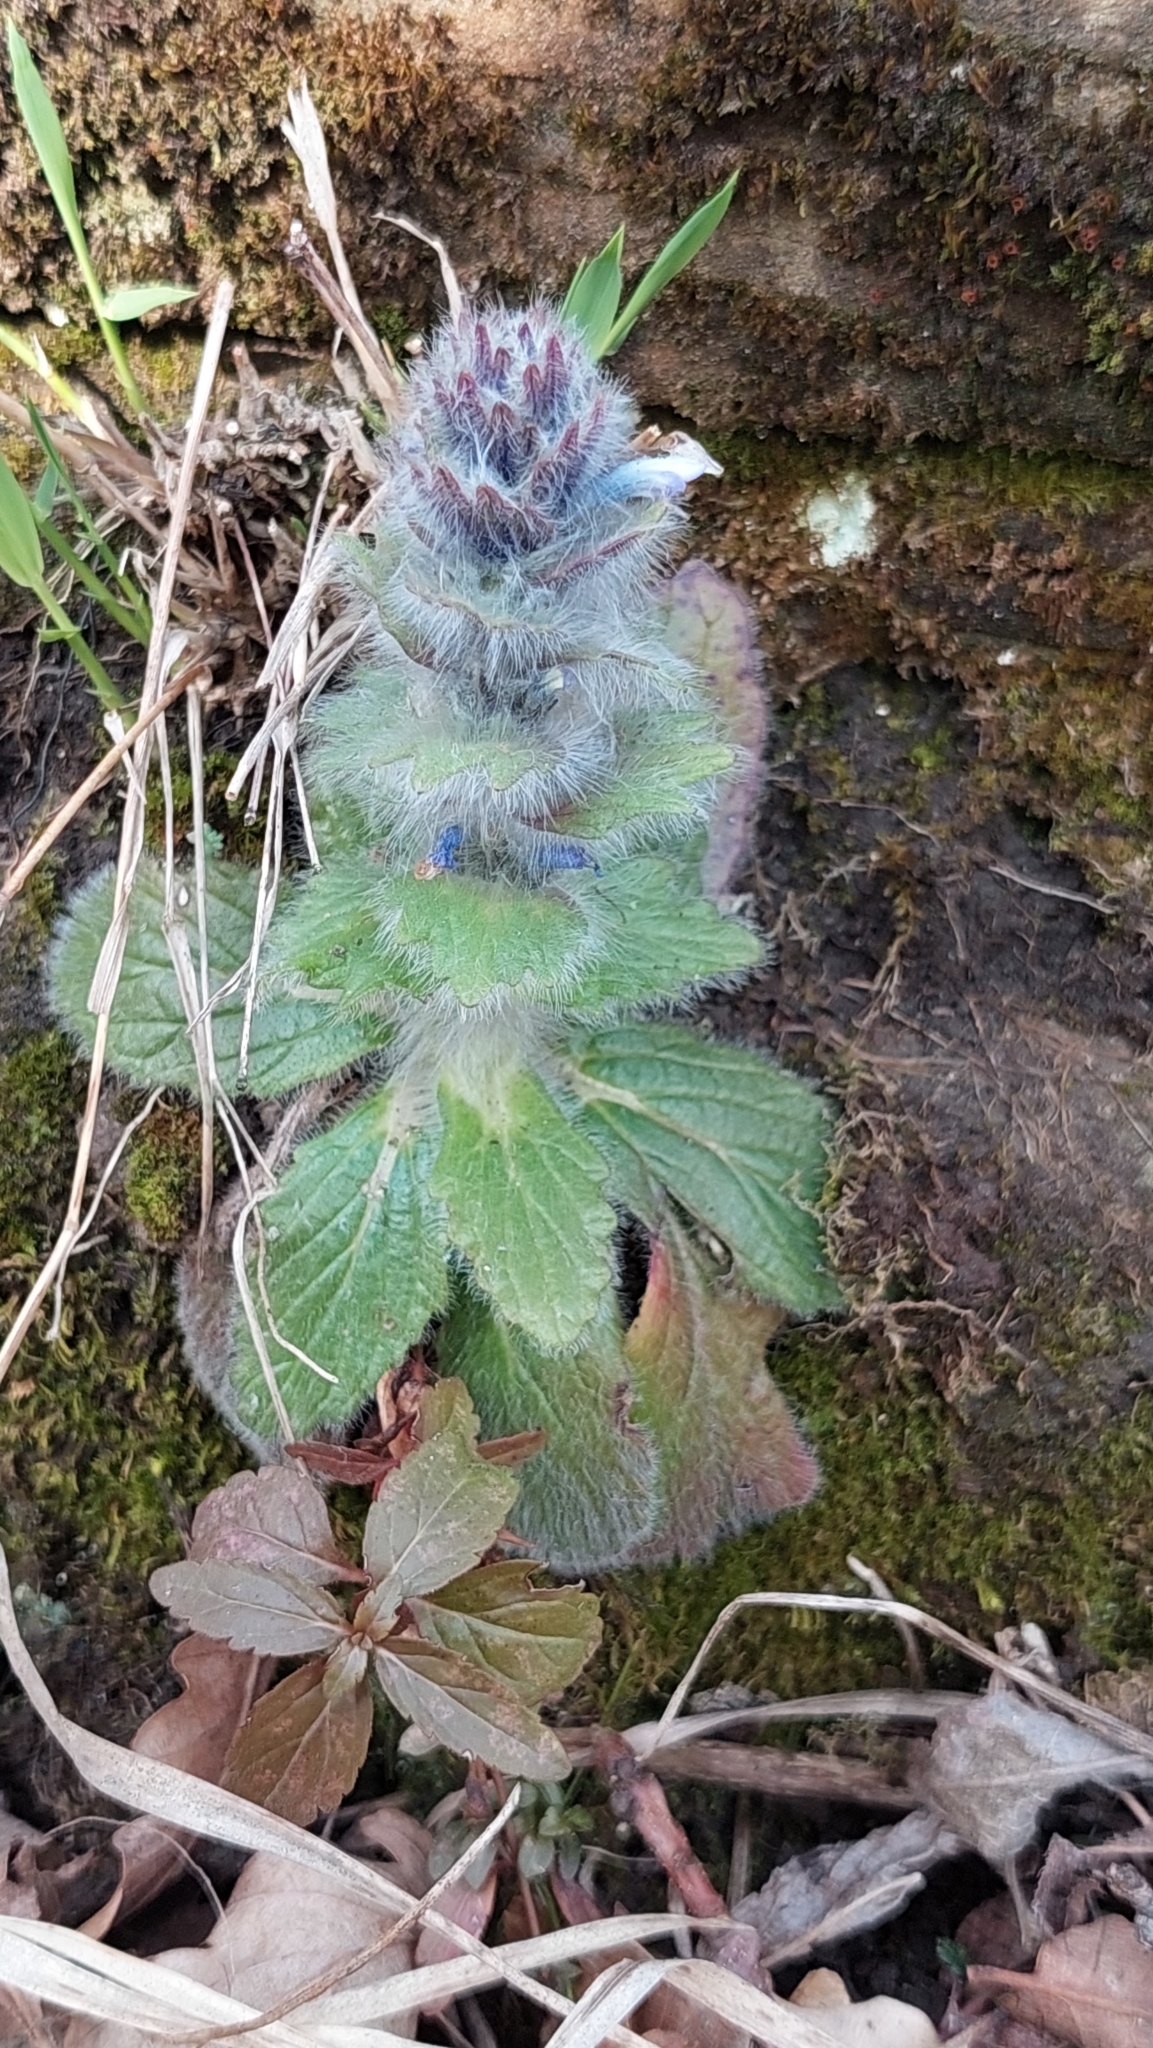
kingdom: Plantae
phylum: Tracheophyta
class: Magnoliopsida
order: Lamiales
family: Lamiaceae
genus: Ajuga
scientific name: Ajuga orientalis
